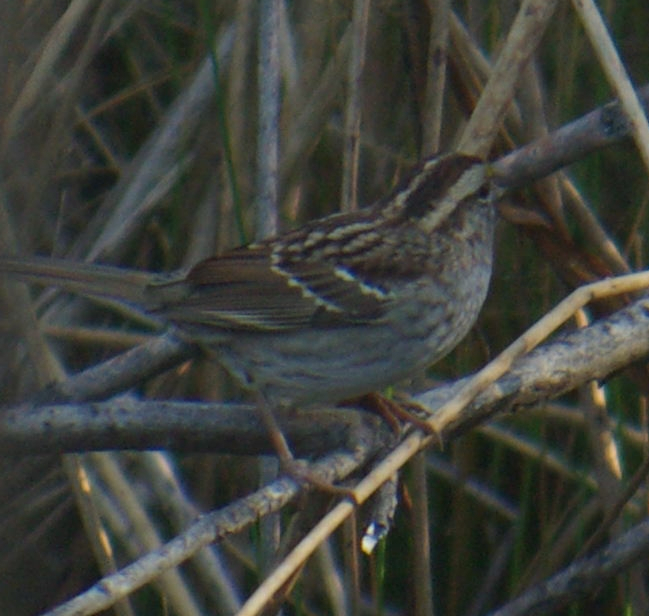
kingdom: Animalia
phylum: Chordata
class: Aves
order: Passeriformes
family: Passerellidae
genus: Zonotrichia
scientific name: Zonotrichia albicollis
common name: White-throated sparrow
